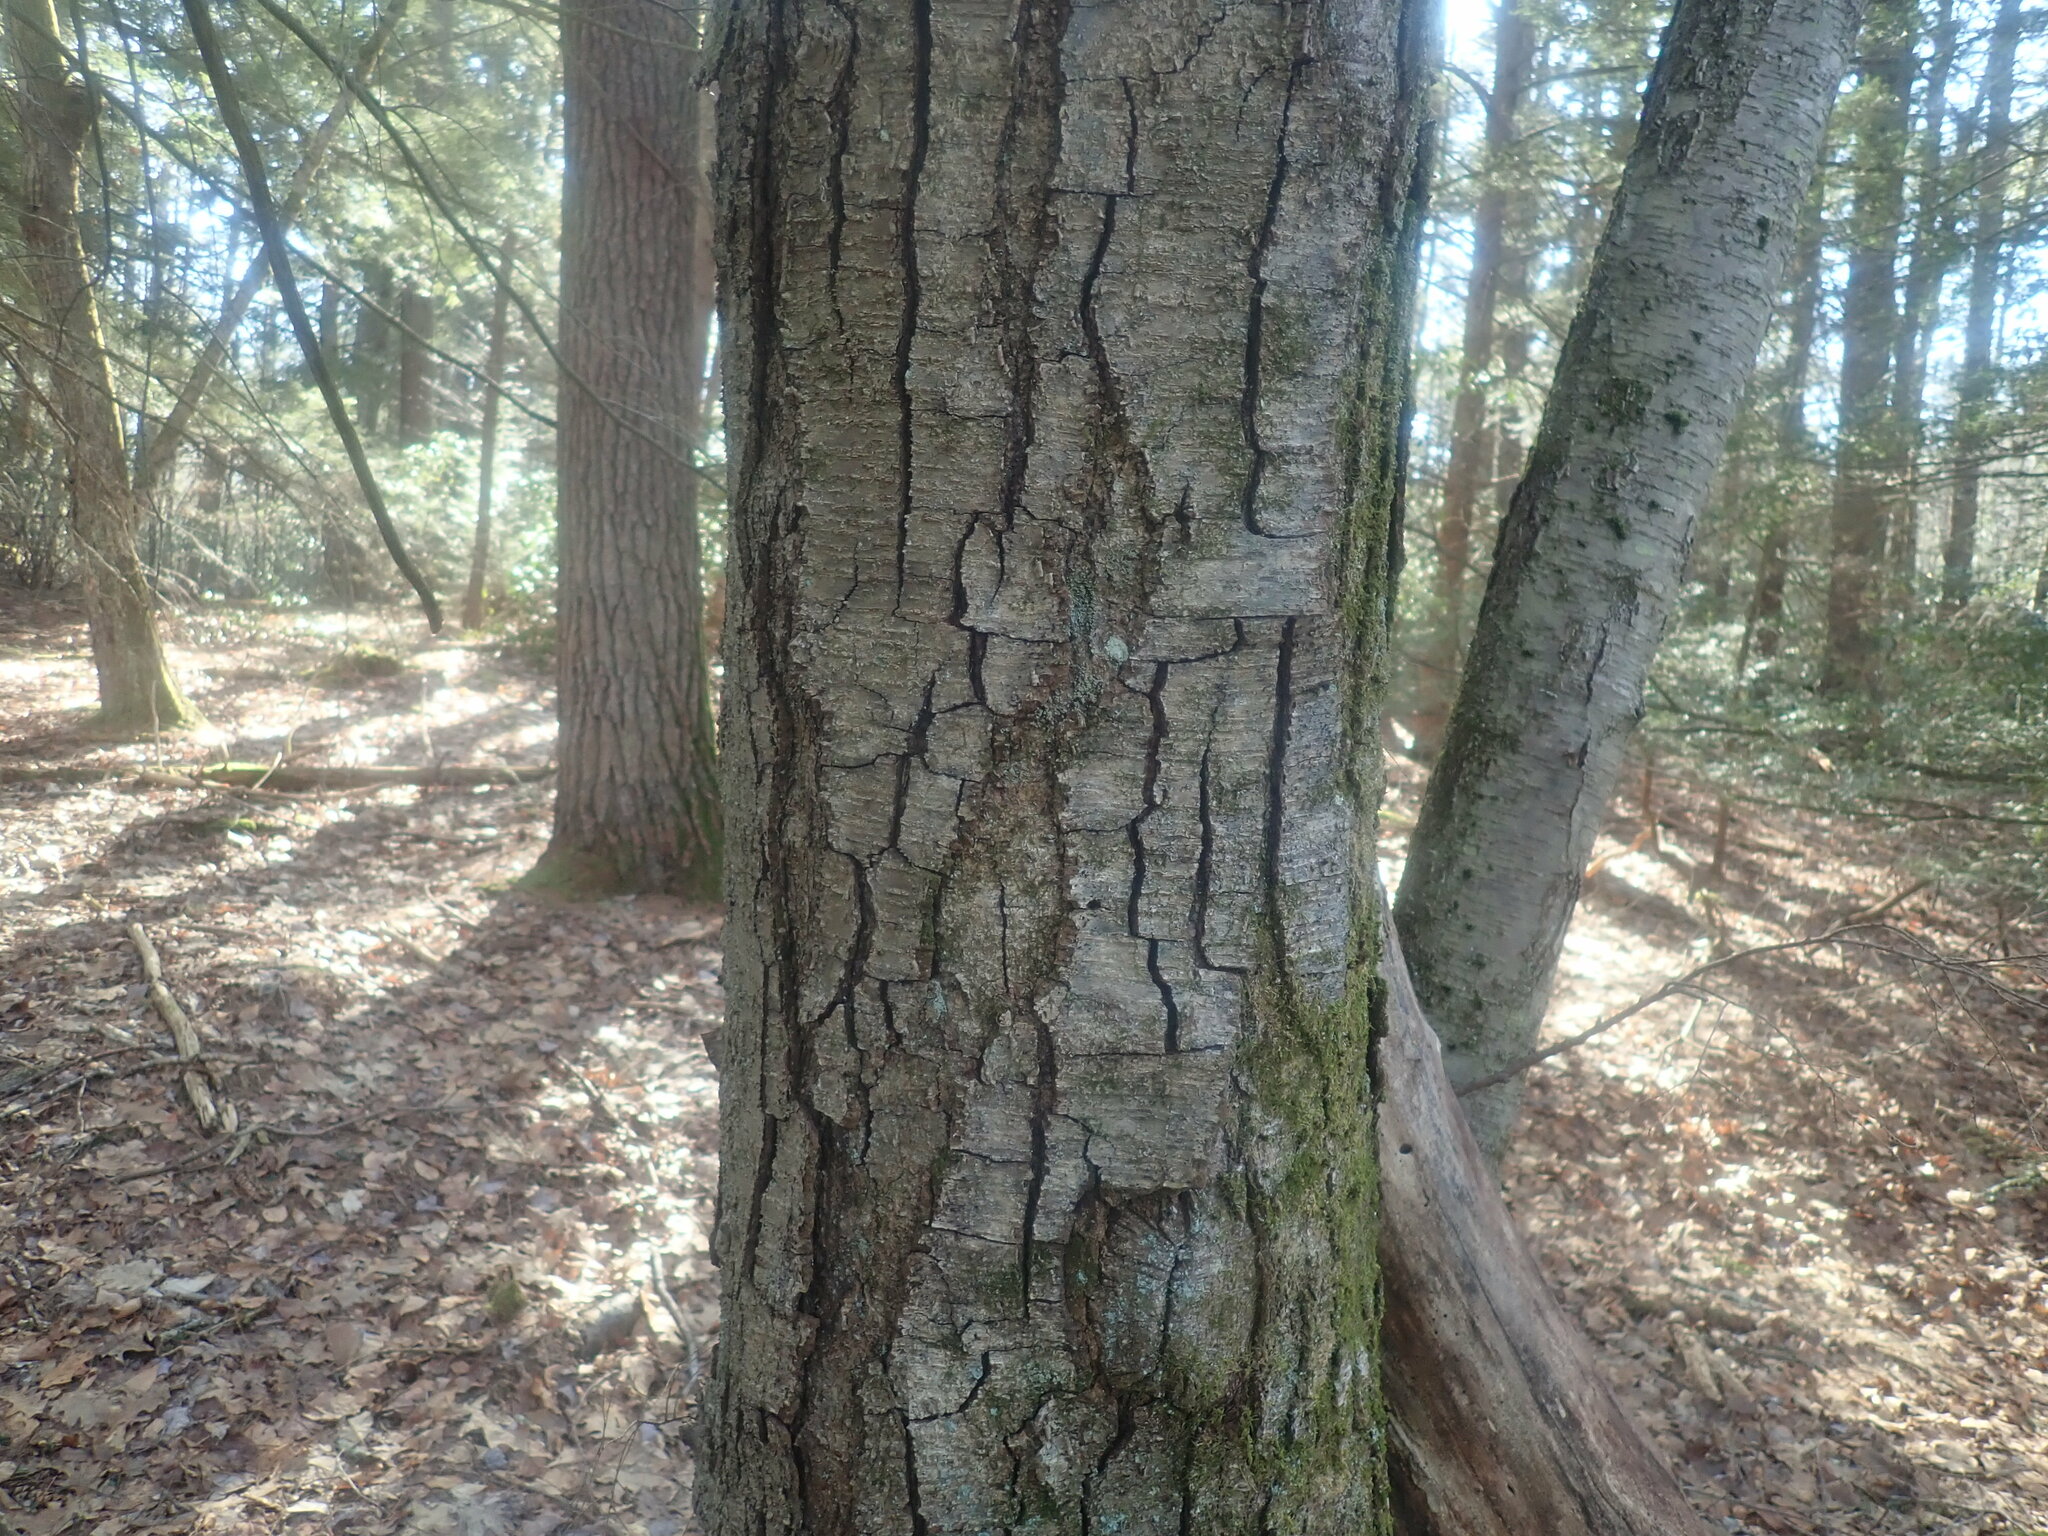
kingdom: Plantae
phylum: Tracheophyta
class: Magnoliopsida
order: Fagales
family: Betulaceae
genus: Betula
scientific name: Betula lenta
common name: Black birch
